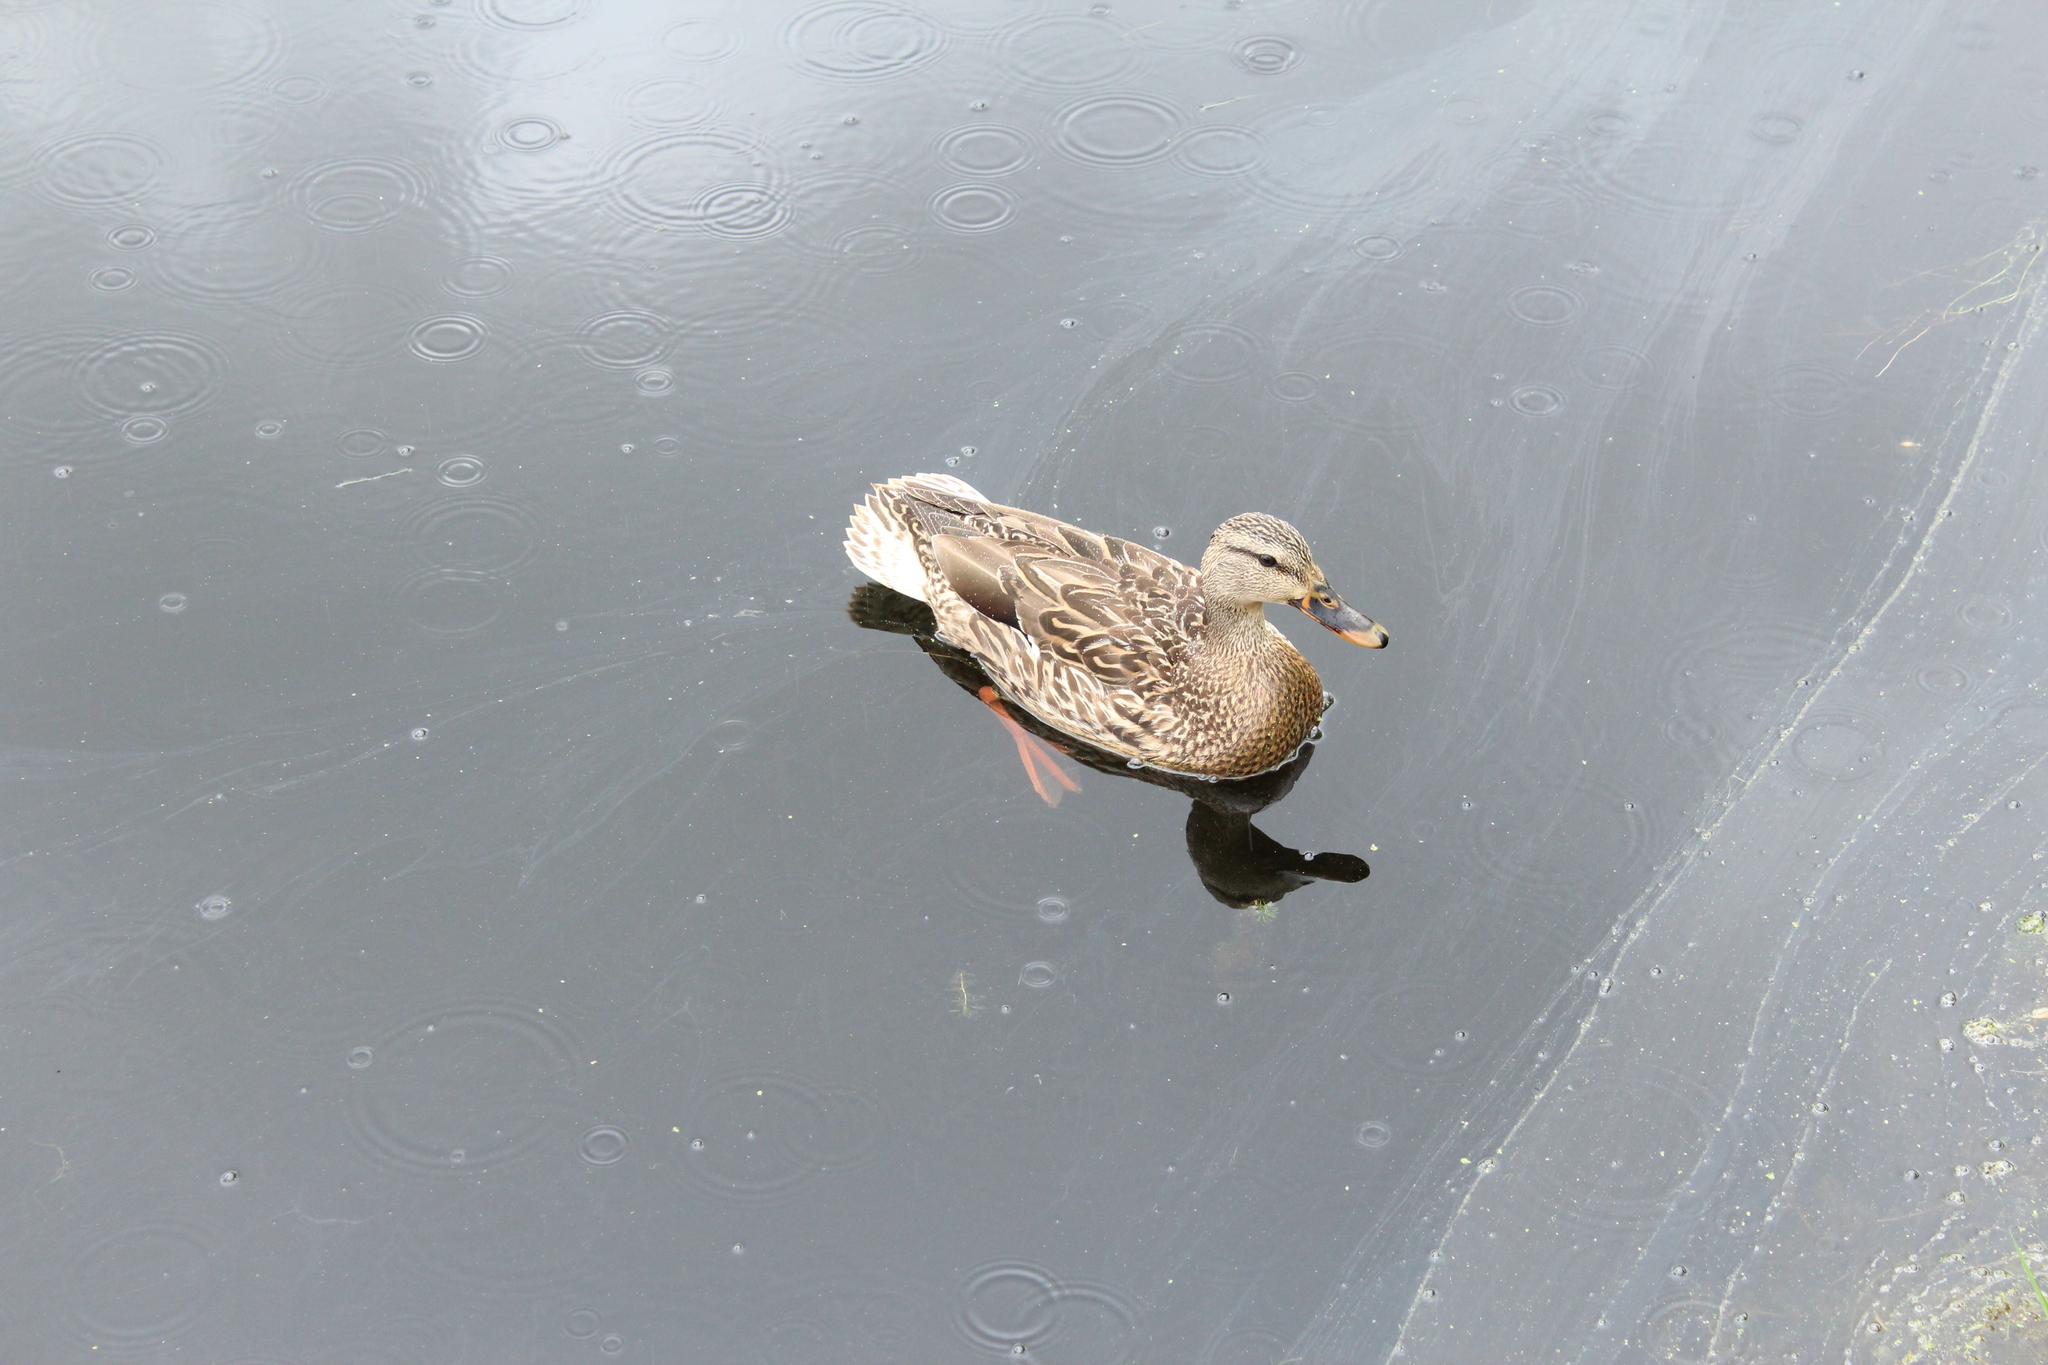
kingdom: Animalia
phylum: Chordata
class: Aves
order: Anseriformes
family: Anatidae
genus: Anas
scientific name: Anas platyrhynchos
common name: Mallard
